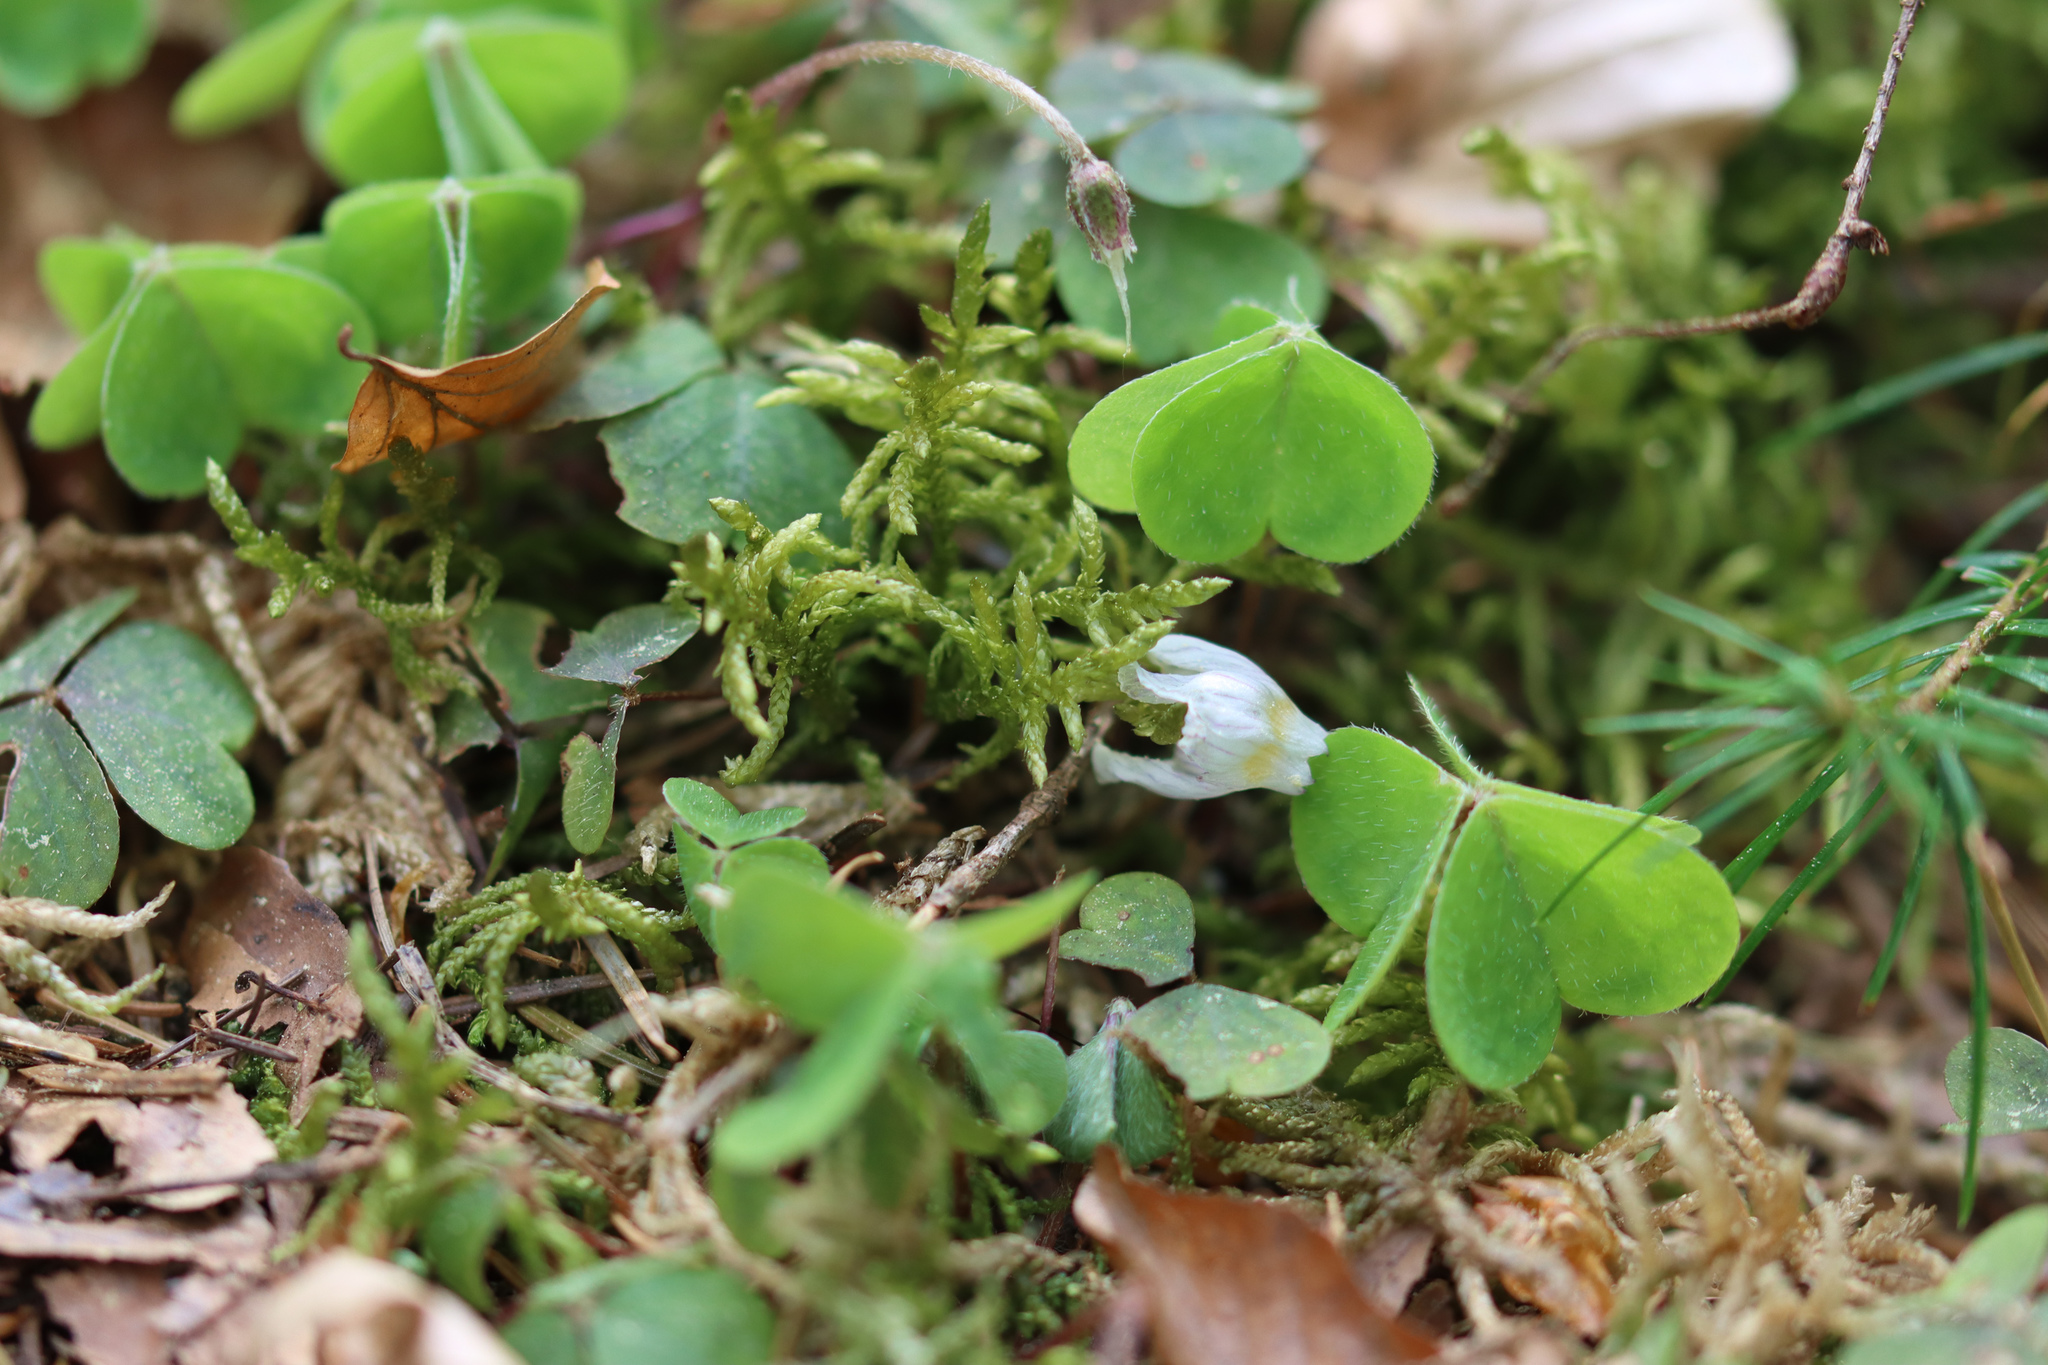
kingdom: Plantae
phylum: Tracheophyta
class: Magnoliopsida
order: Oxalidales
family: Oxalidaceae
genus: Oxalis
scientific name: Oxalis acetosella
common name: Wood-sorrel
